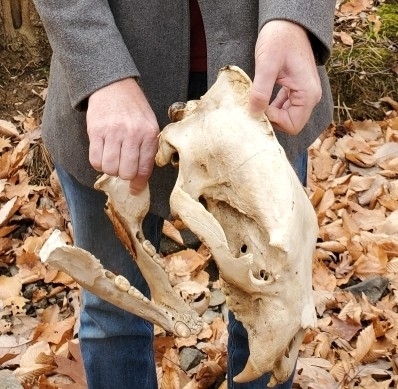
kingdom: Animalia
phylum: Chordata
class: Mammalia
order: Carnivora
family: Ursidae
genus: Ursus
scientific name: Ursus americanus
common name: American black bear
